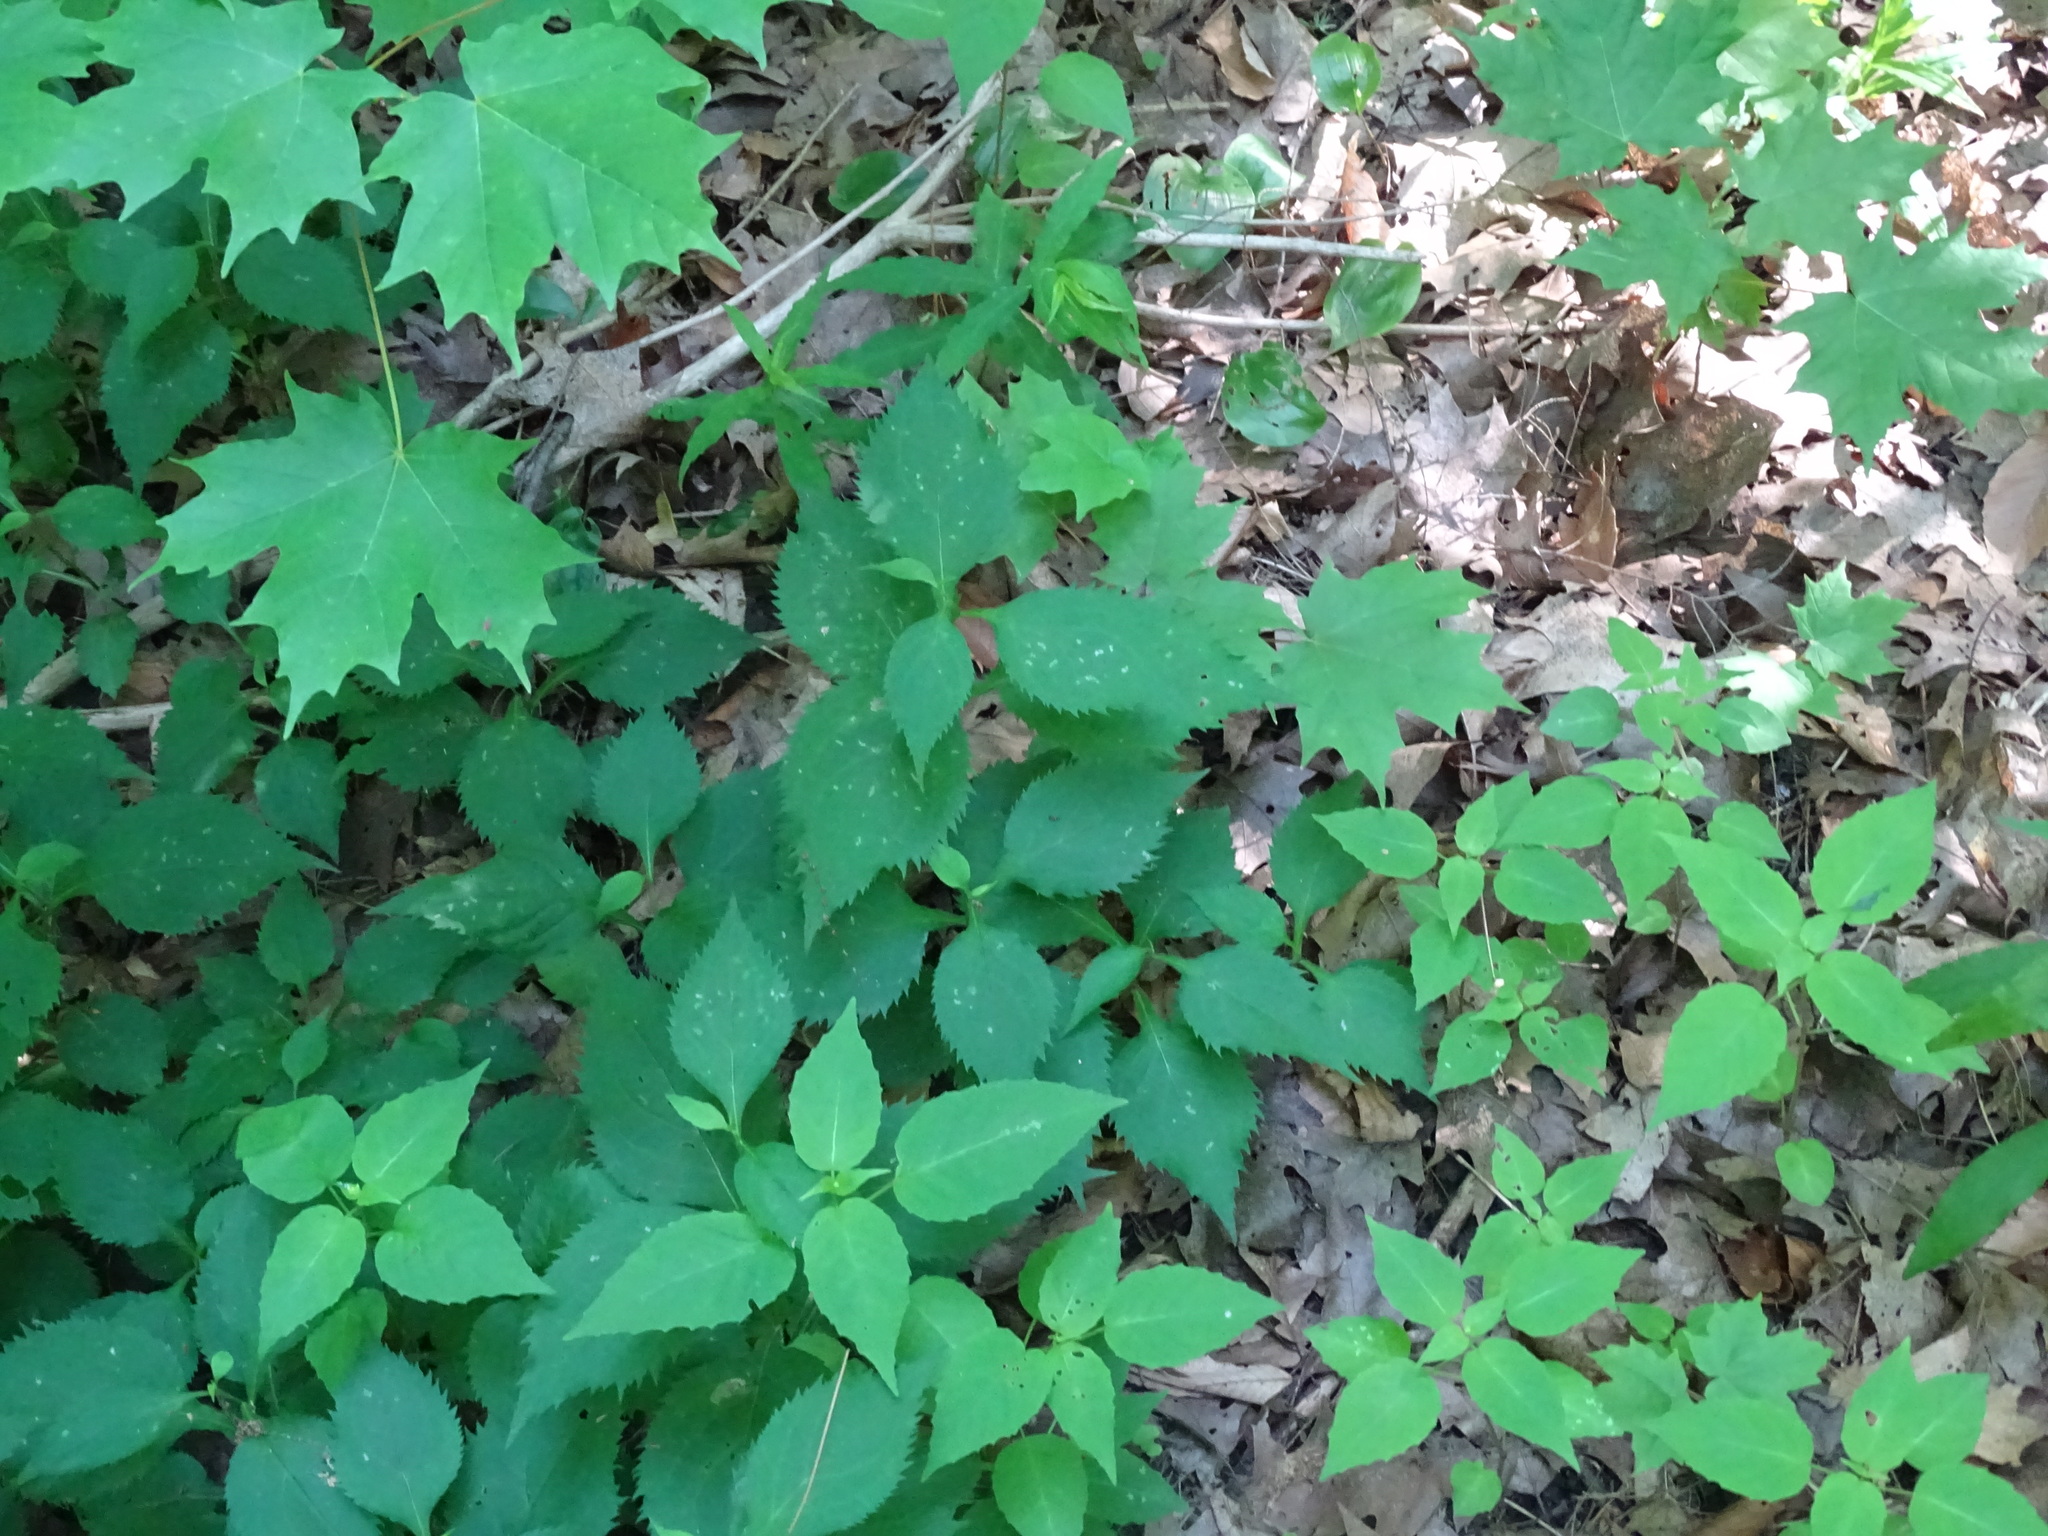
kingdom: Plantae
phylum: Tracheophyta
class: Magnoliopsida
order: Asterales
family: Asteraceae
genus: Solidago
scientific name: Solidago flexicaulis
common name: Zig-zag goldenrod
